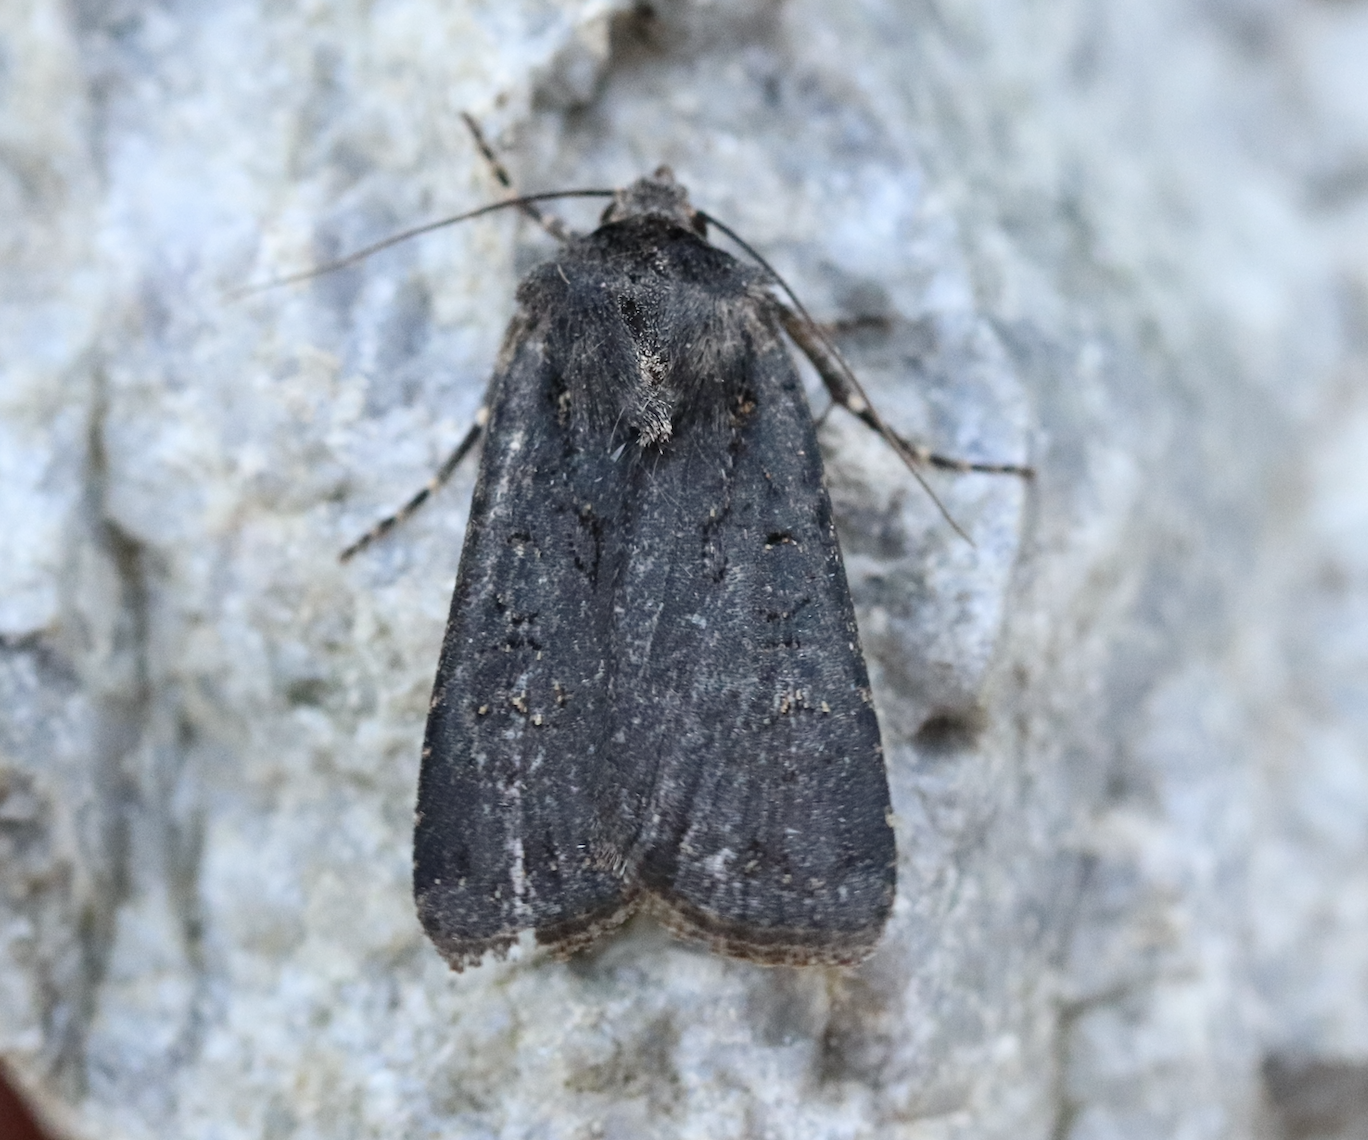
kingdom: Animalia
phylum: Arthropoda
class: Insecta
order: Lepidoptera
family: Noctuidae
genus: Euxoa
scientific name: Euxoa nigricans
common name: Garden dart
